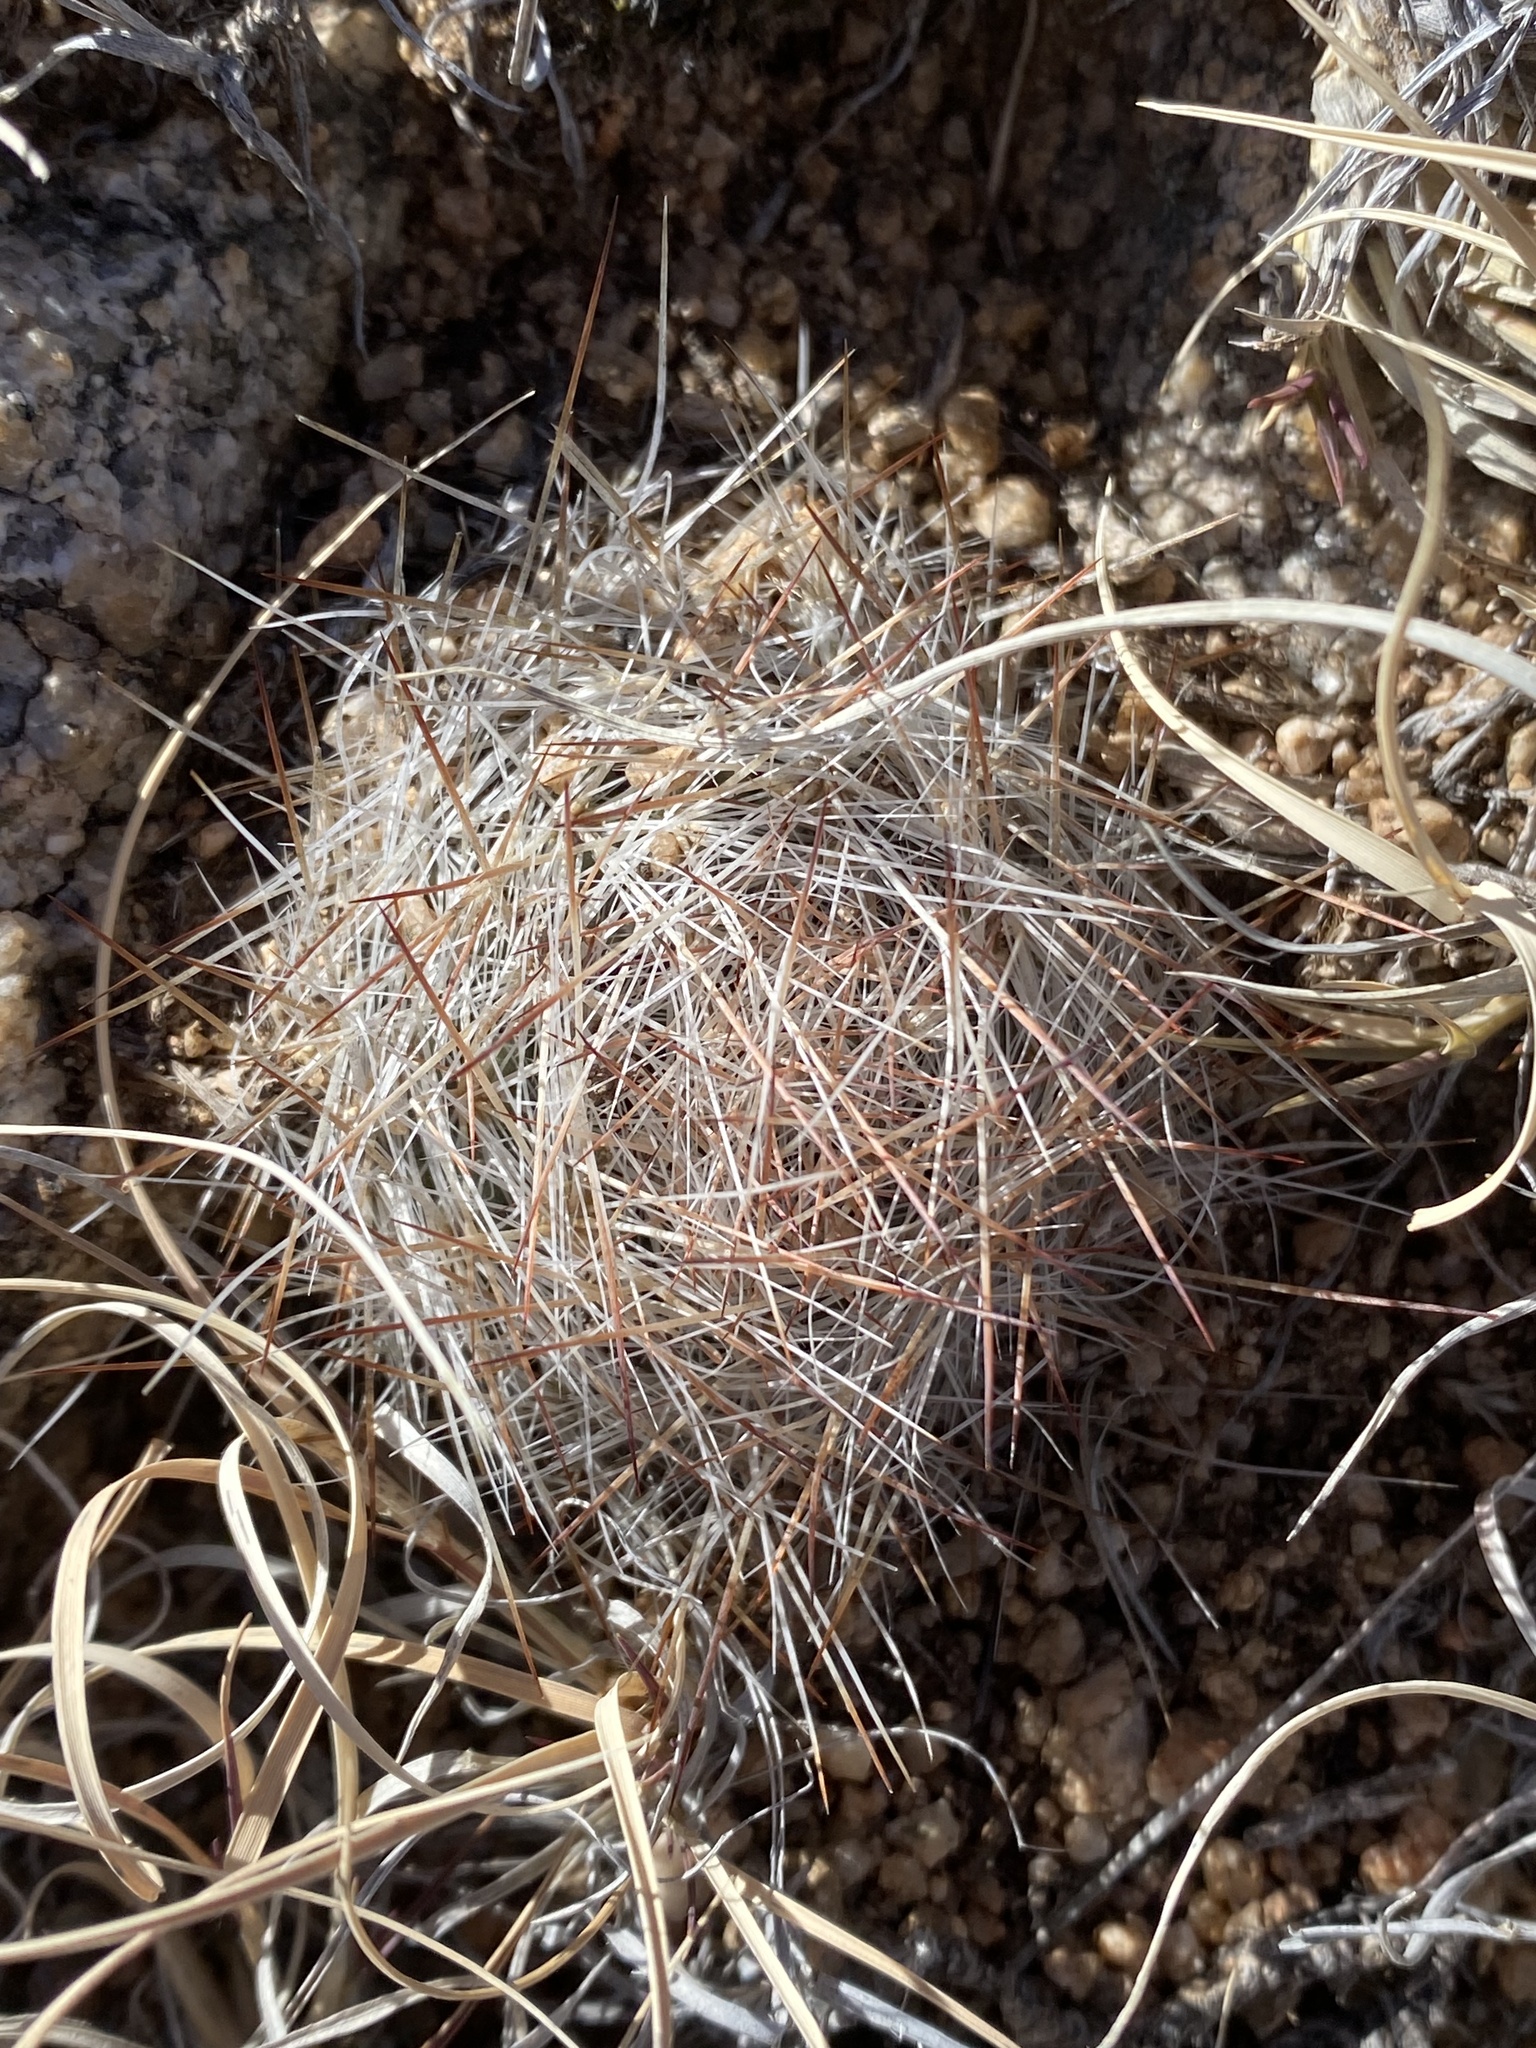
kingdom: Plantae
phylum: Tracheophyta
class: Magnoliopsida
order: Caryophyllales
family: Cactaceae
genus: Pelecyphora
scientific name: Pelecyphora vivipara
